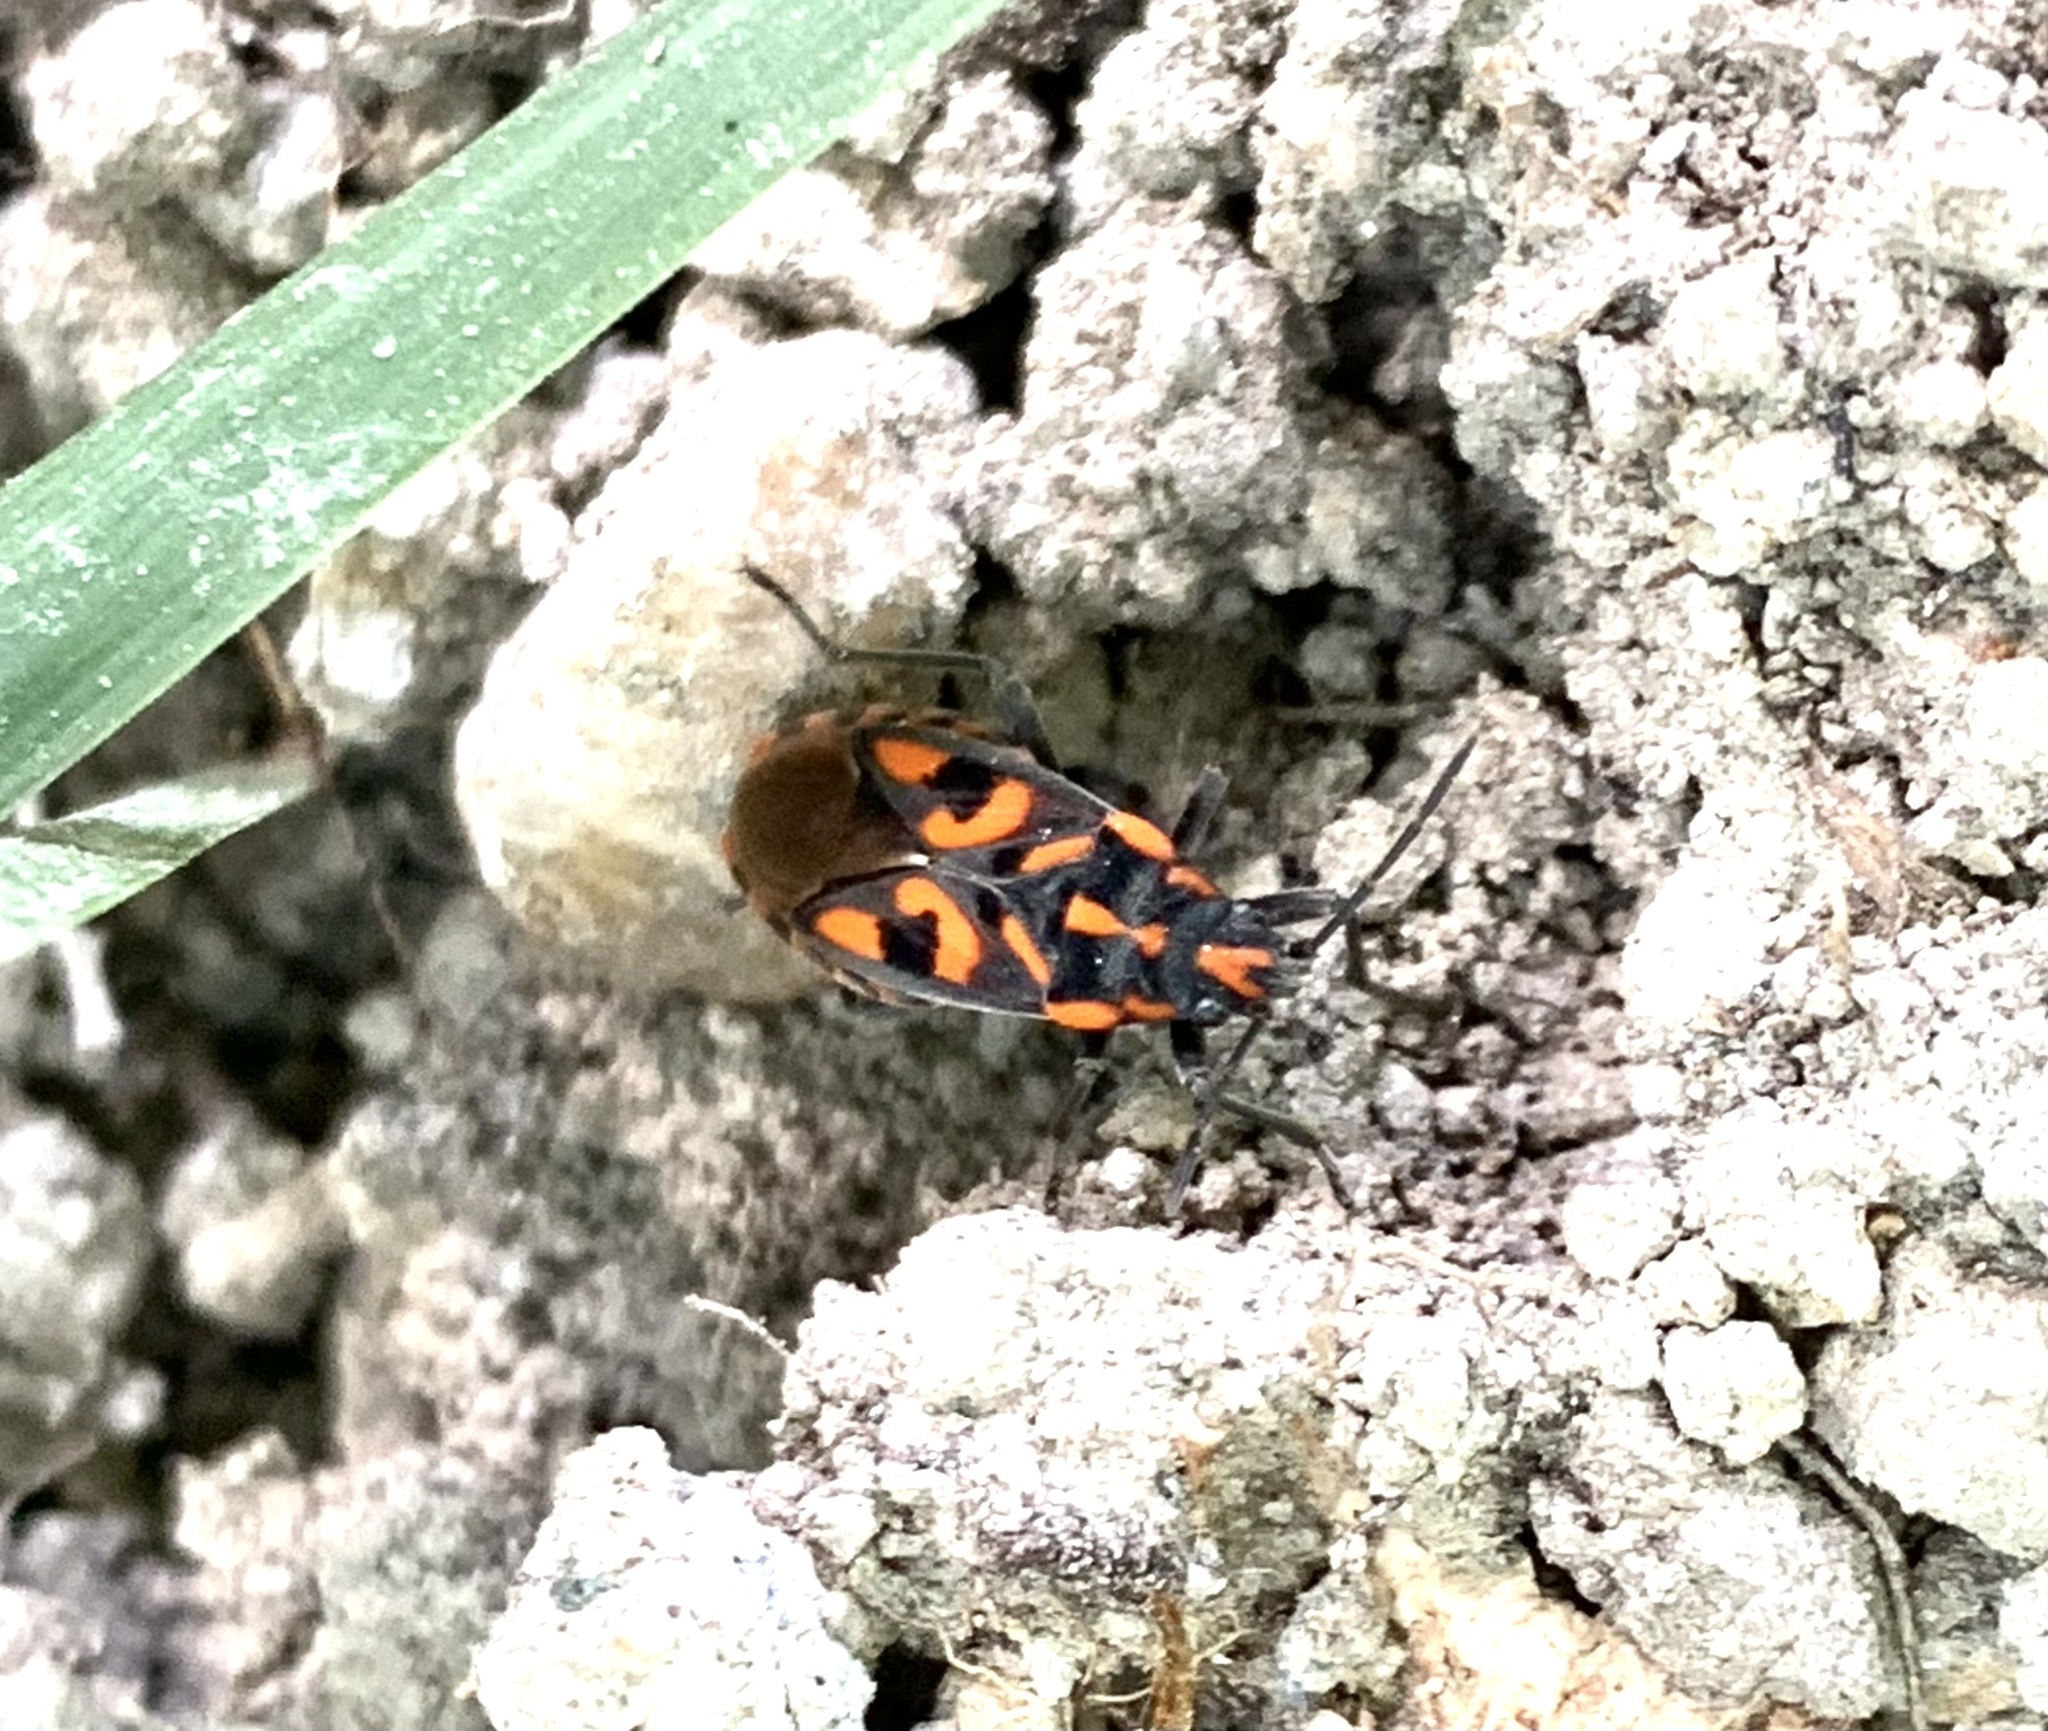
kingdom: Animalia
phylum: Arthropoda
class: Insecta
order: Hemiptera
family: Lygaeidae
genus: Spilostethus
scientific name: Spilostethus saxatilis
